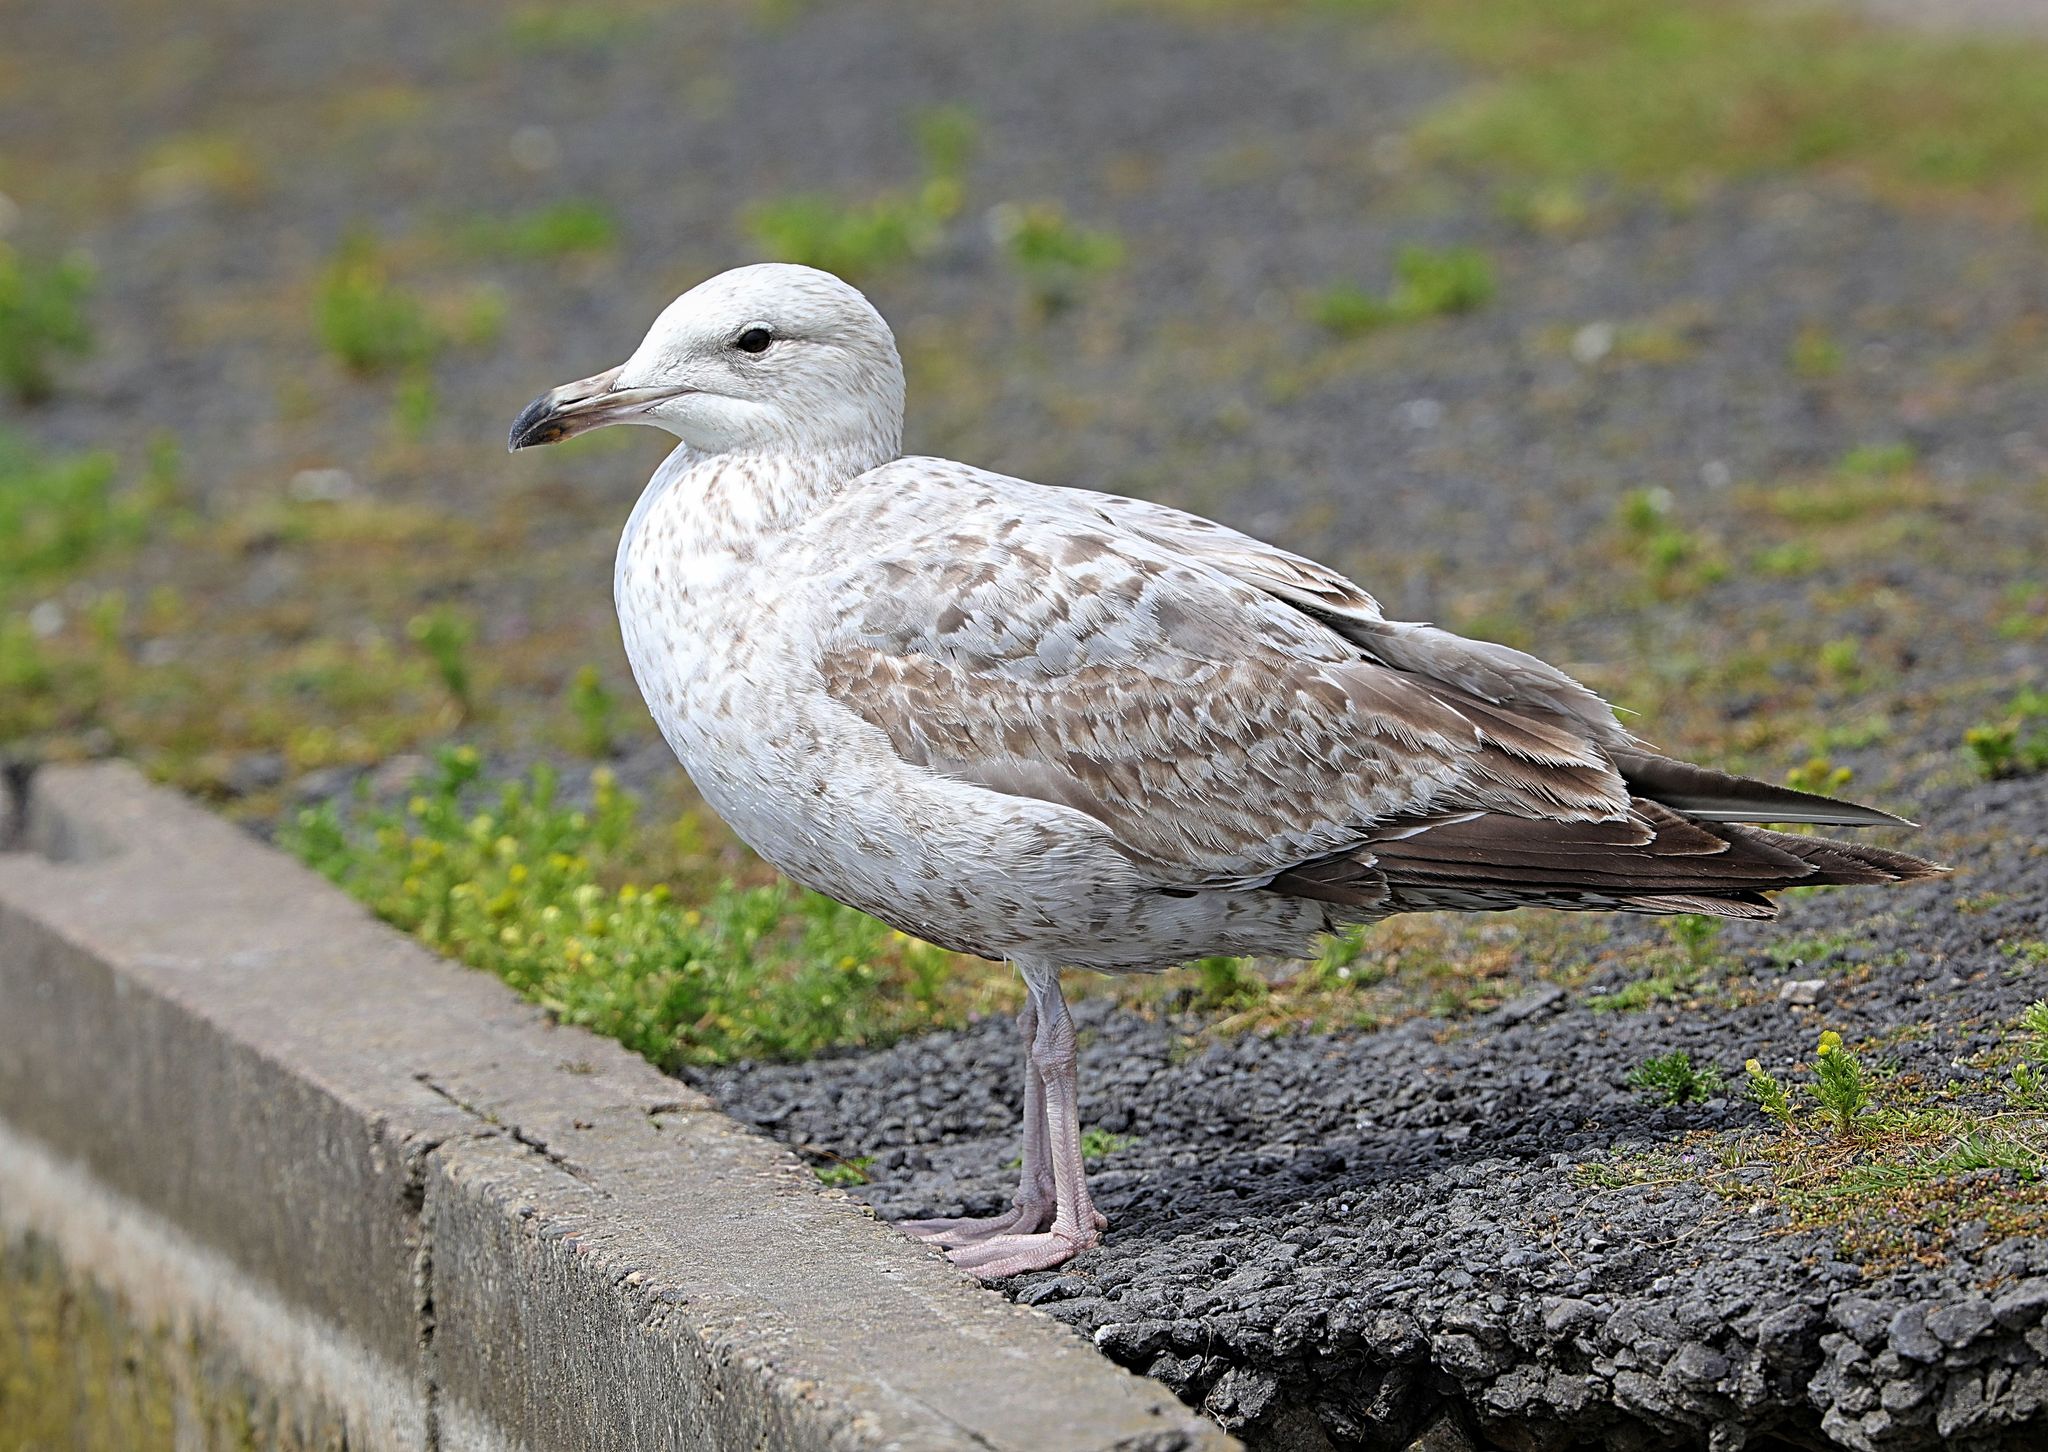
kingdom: Animalia
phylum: Chordata
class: Aves
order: Charadriiformes
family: Laridae
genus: Larus
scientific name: Larus argentatus
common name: Herring gull
